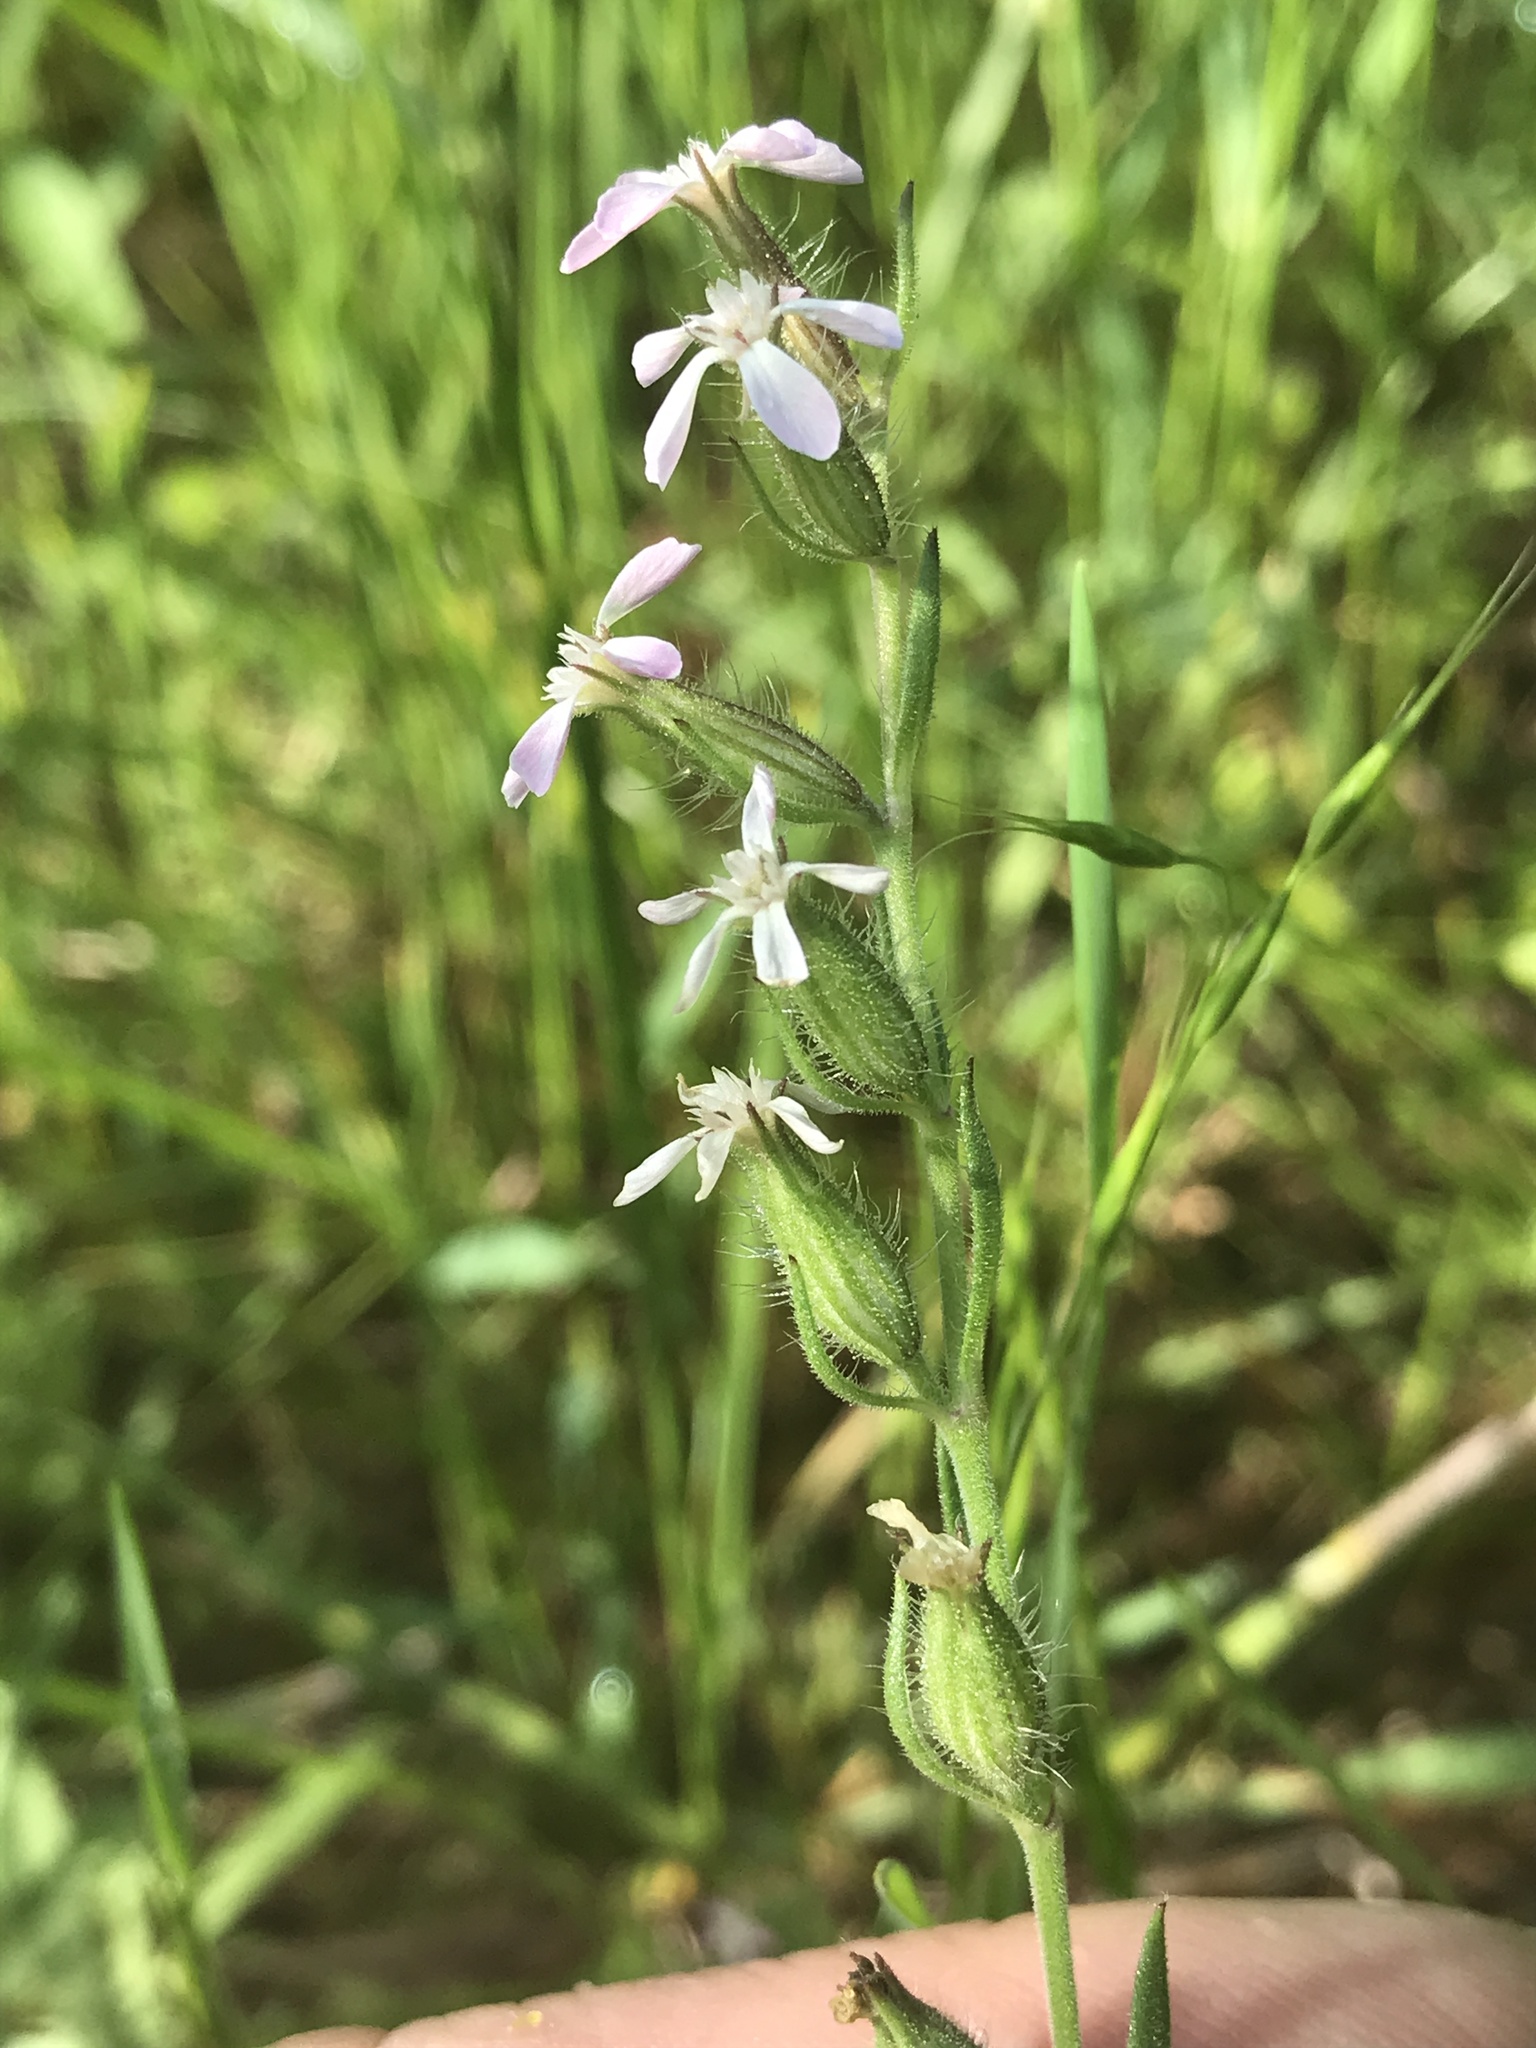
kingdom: Plantae
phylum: Tracheophyta
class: Magnoliopsida
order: Caryophyllales
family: Caryophyllaceae
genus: Silene
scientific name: Silene gallica
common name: Small-flowered catchfly
